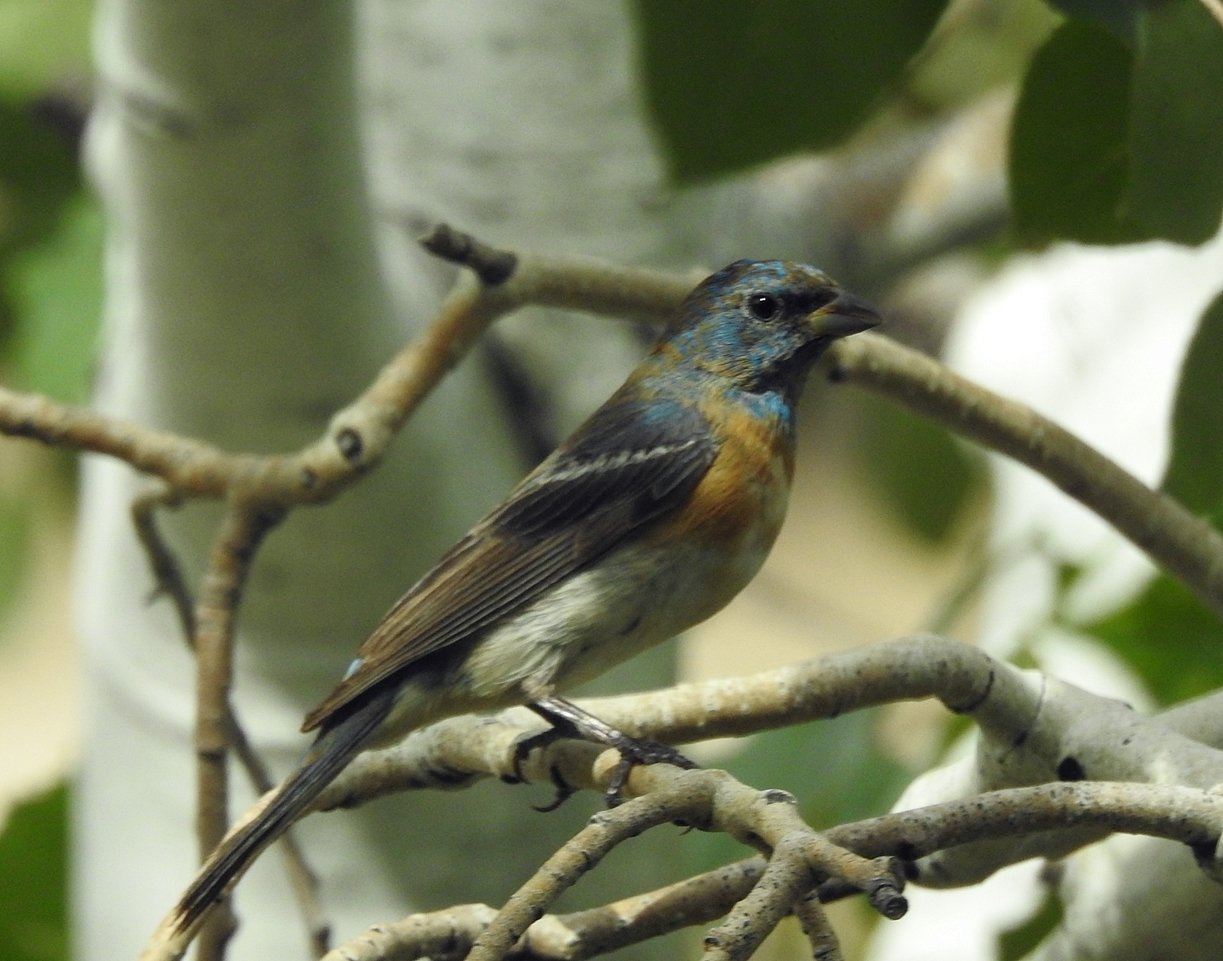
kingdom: Animalia
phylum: Chordata
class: Aves
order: Passeriformes
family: Cardinalidae
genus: Passerina
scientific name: Passerina amoena
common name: Lazuli bunting
